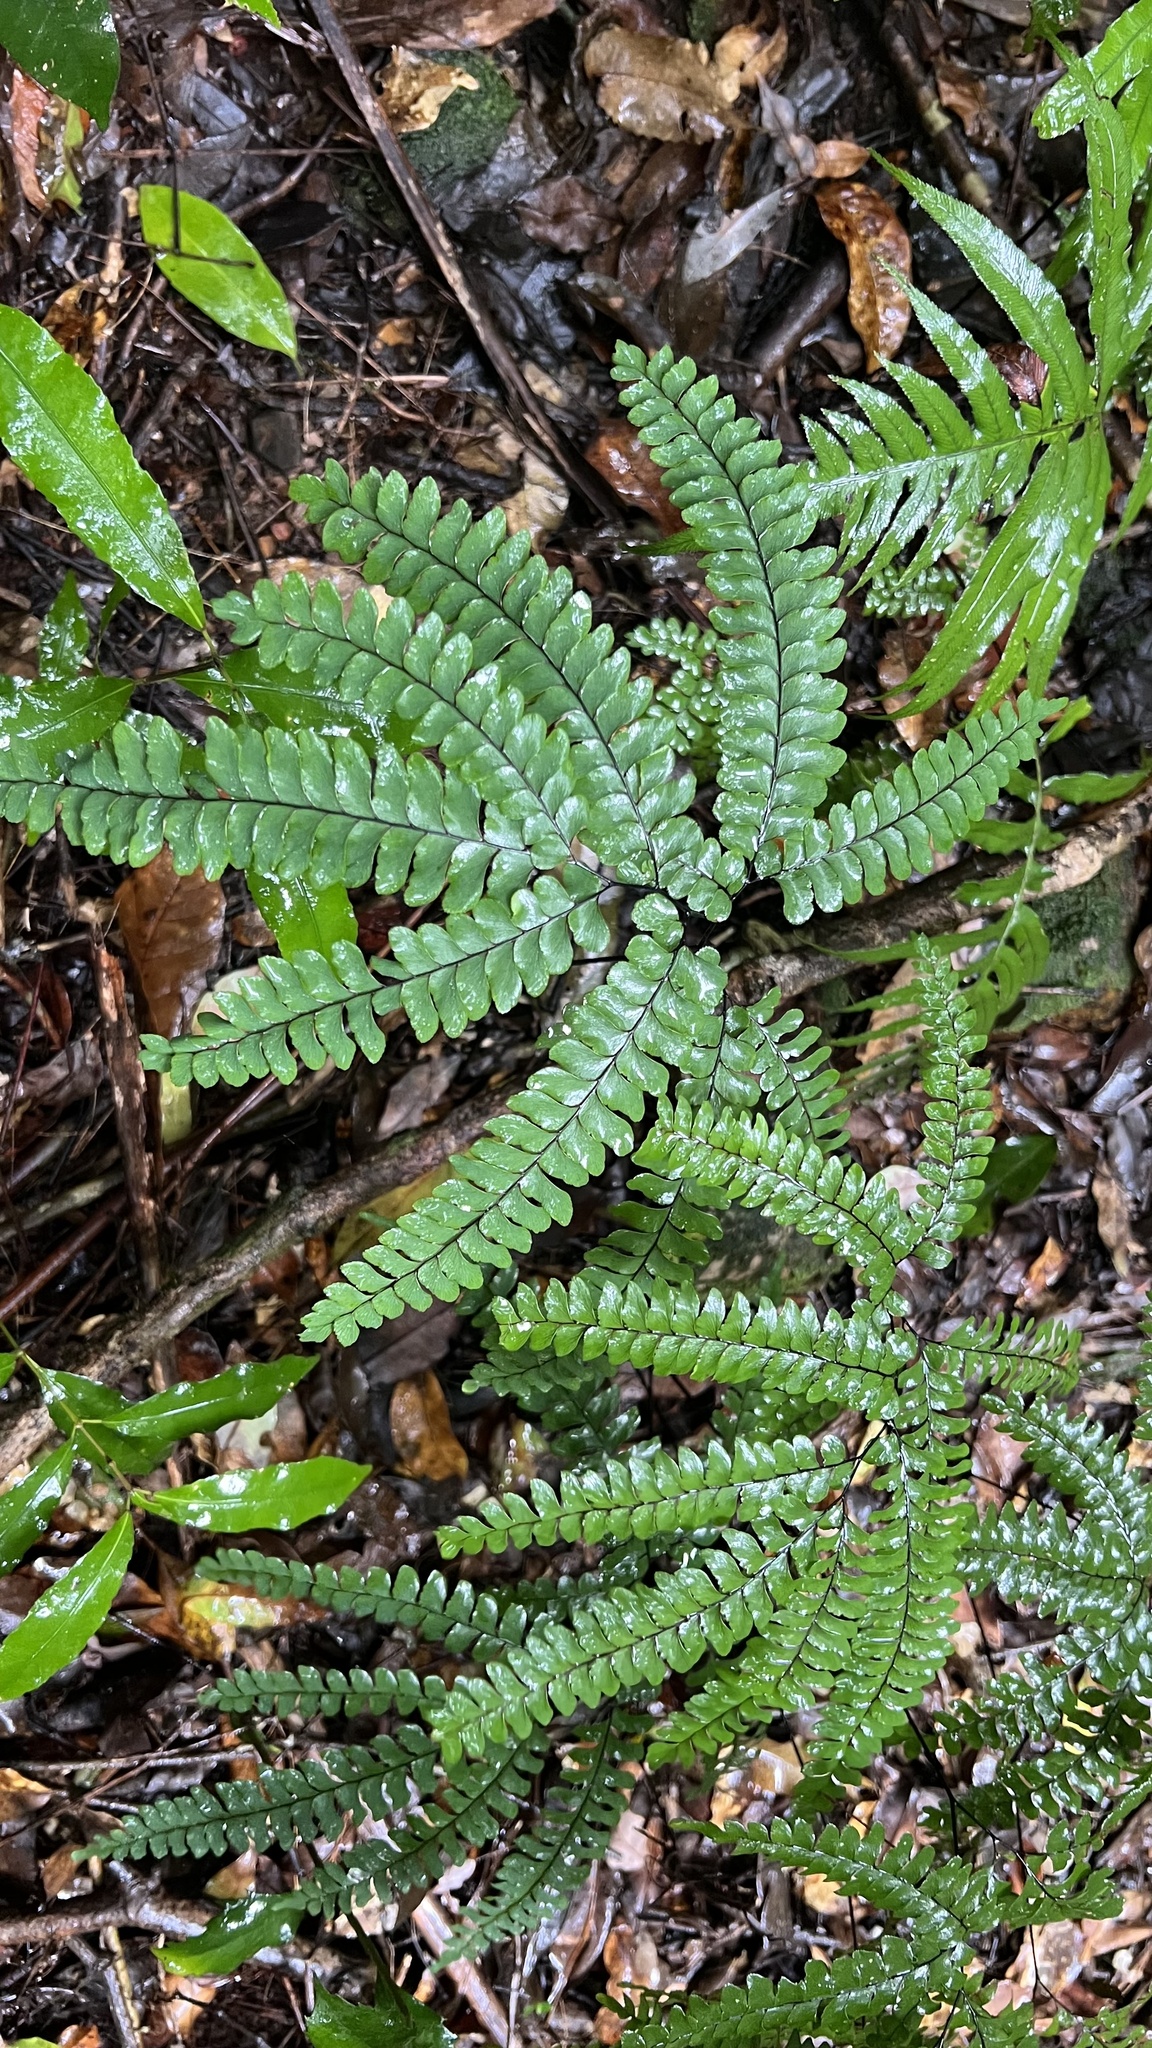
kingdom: Plantae
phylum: Tracheophyta
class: Polypodiopsida
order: Polypodiales
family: Pteridaceae
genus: Adiantum
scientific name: Adiantum silvaticum
